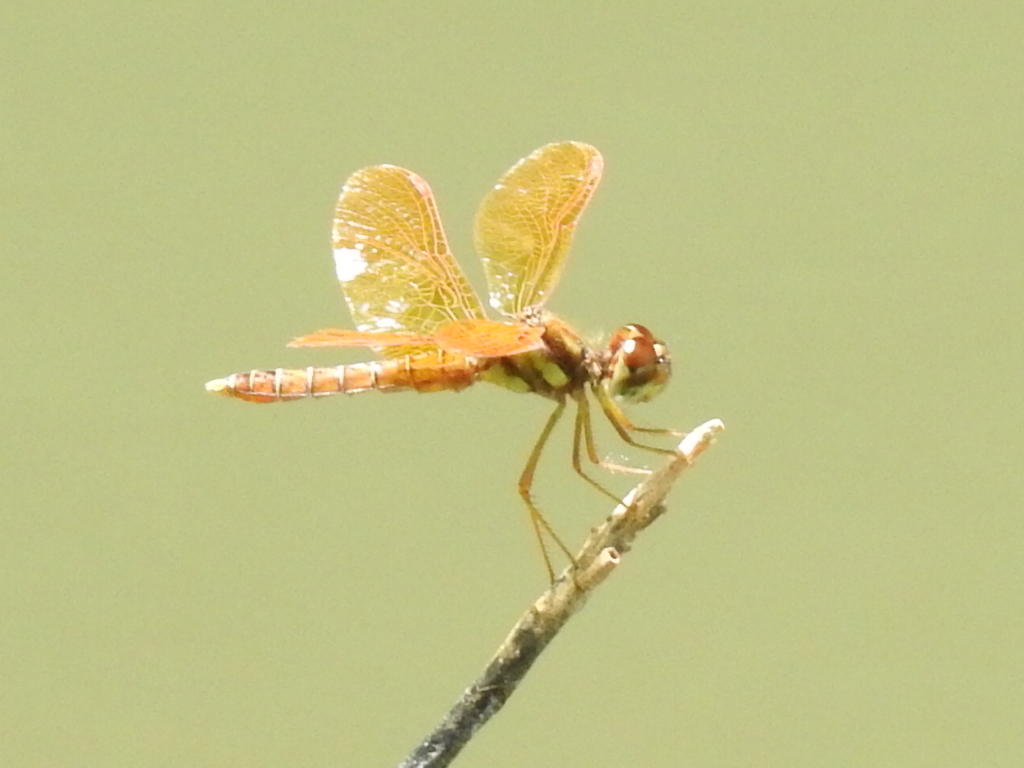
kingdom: Animalia
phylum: Arthropoda
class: Insecta
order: Odonata
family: Libellulidae
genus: Perithemis
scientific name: Perithemis tenera
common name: Eastern amberwing
